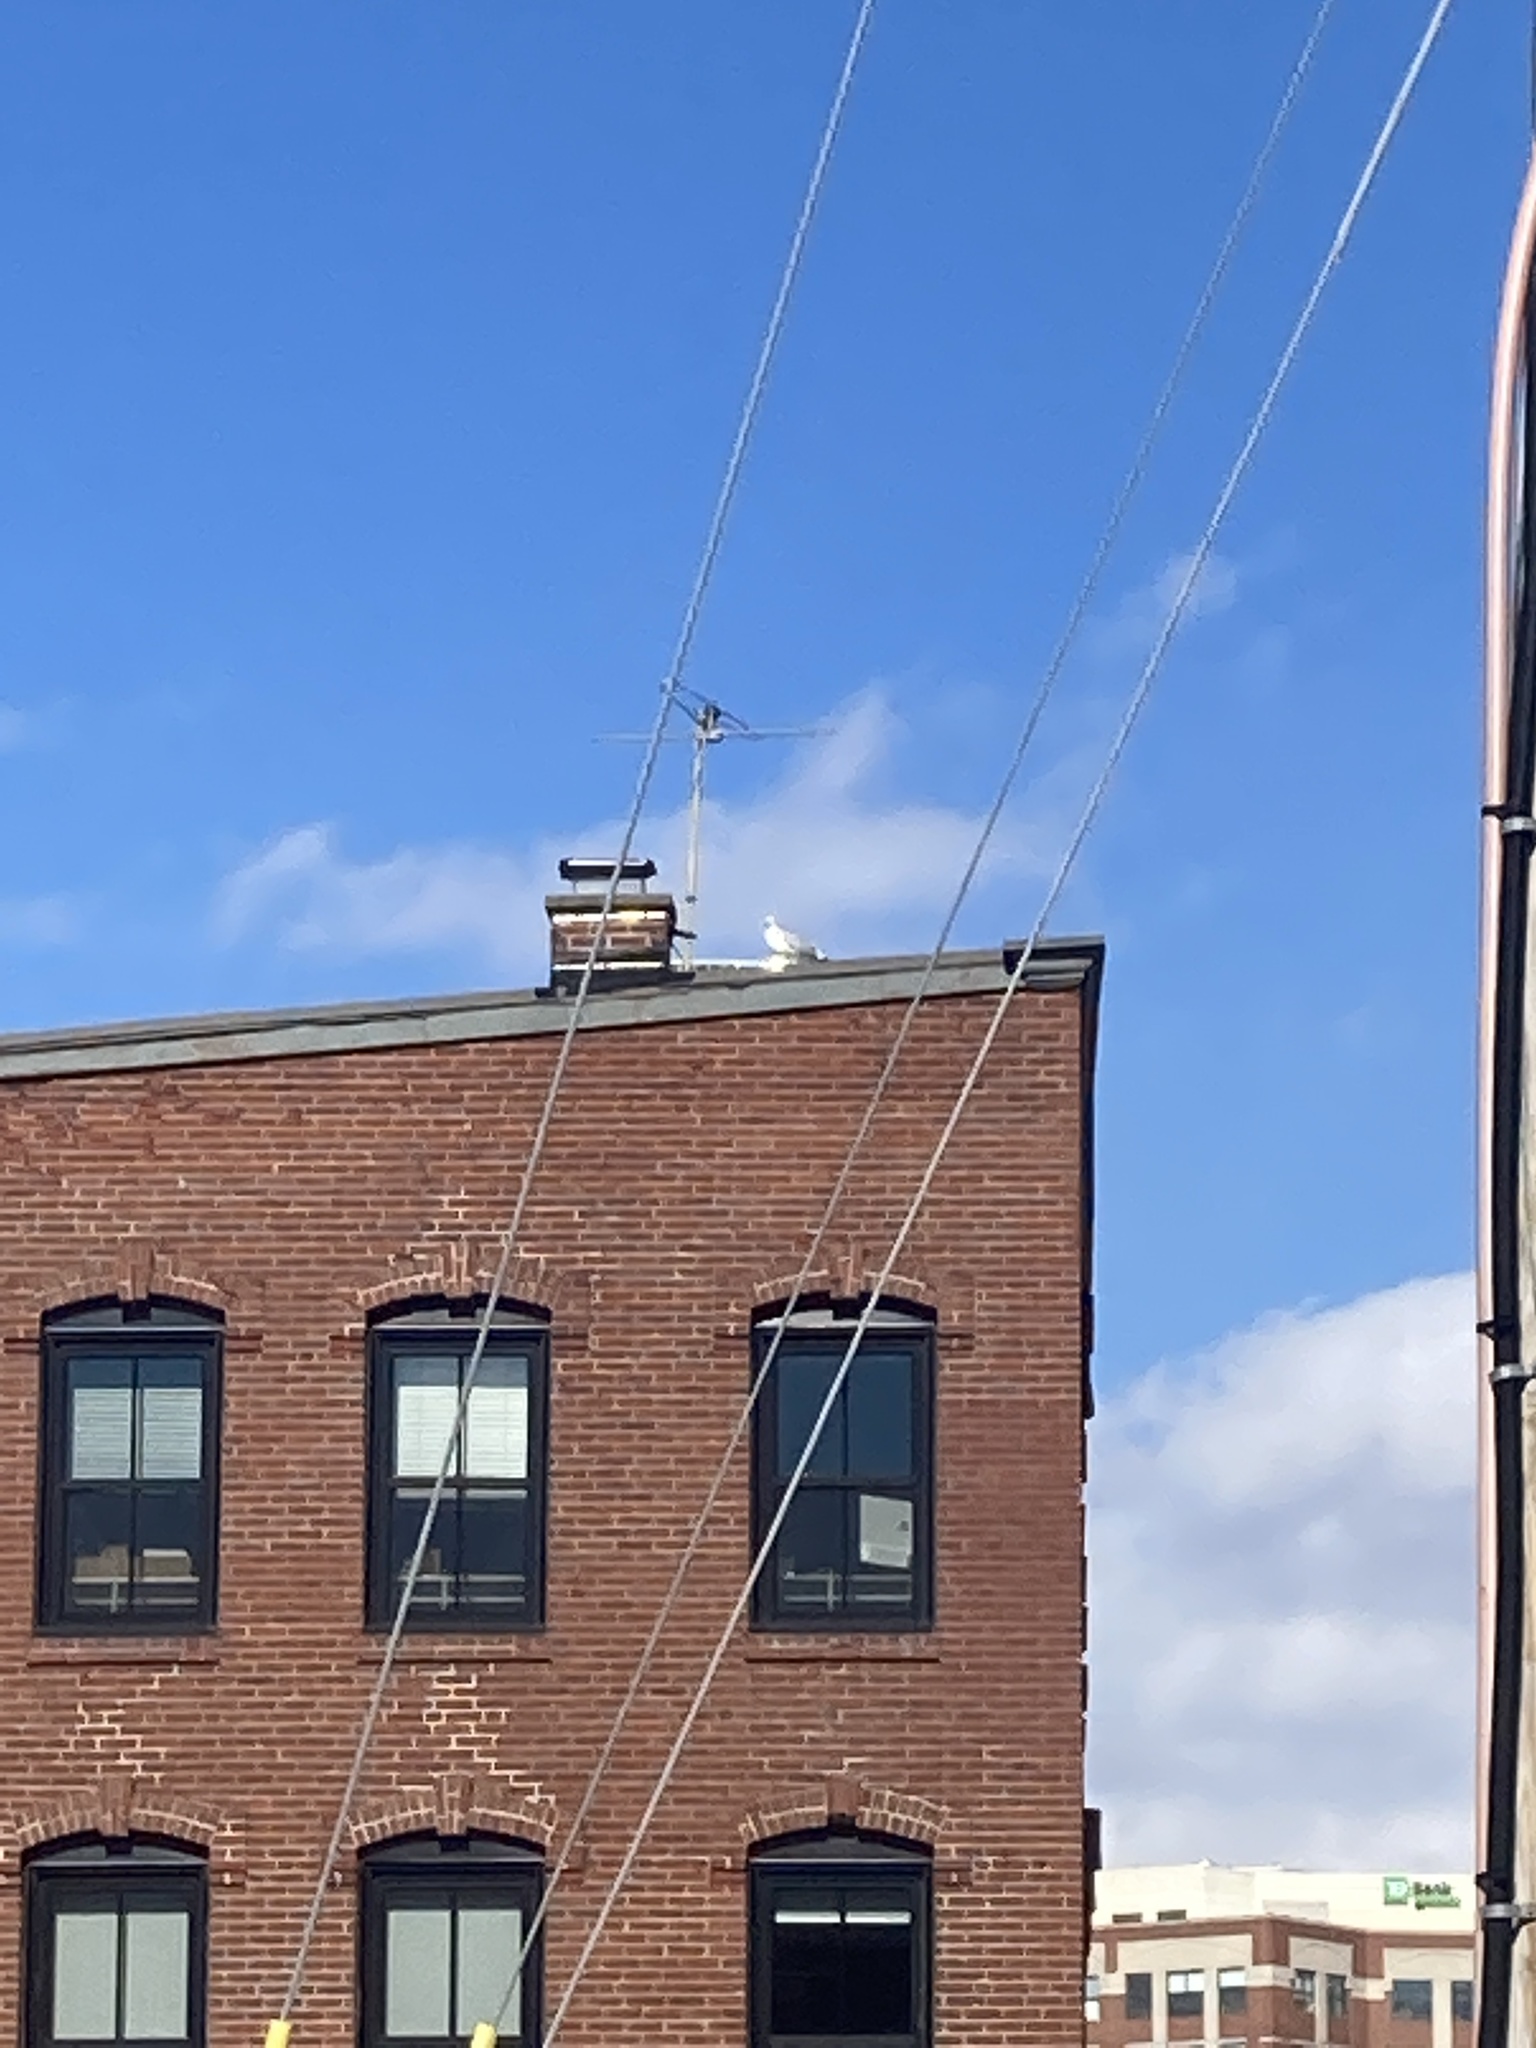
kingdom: Animalia
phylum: Chordata
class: Aves
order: Charadriiformes
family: Laridae
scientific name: Laridae
